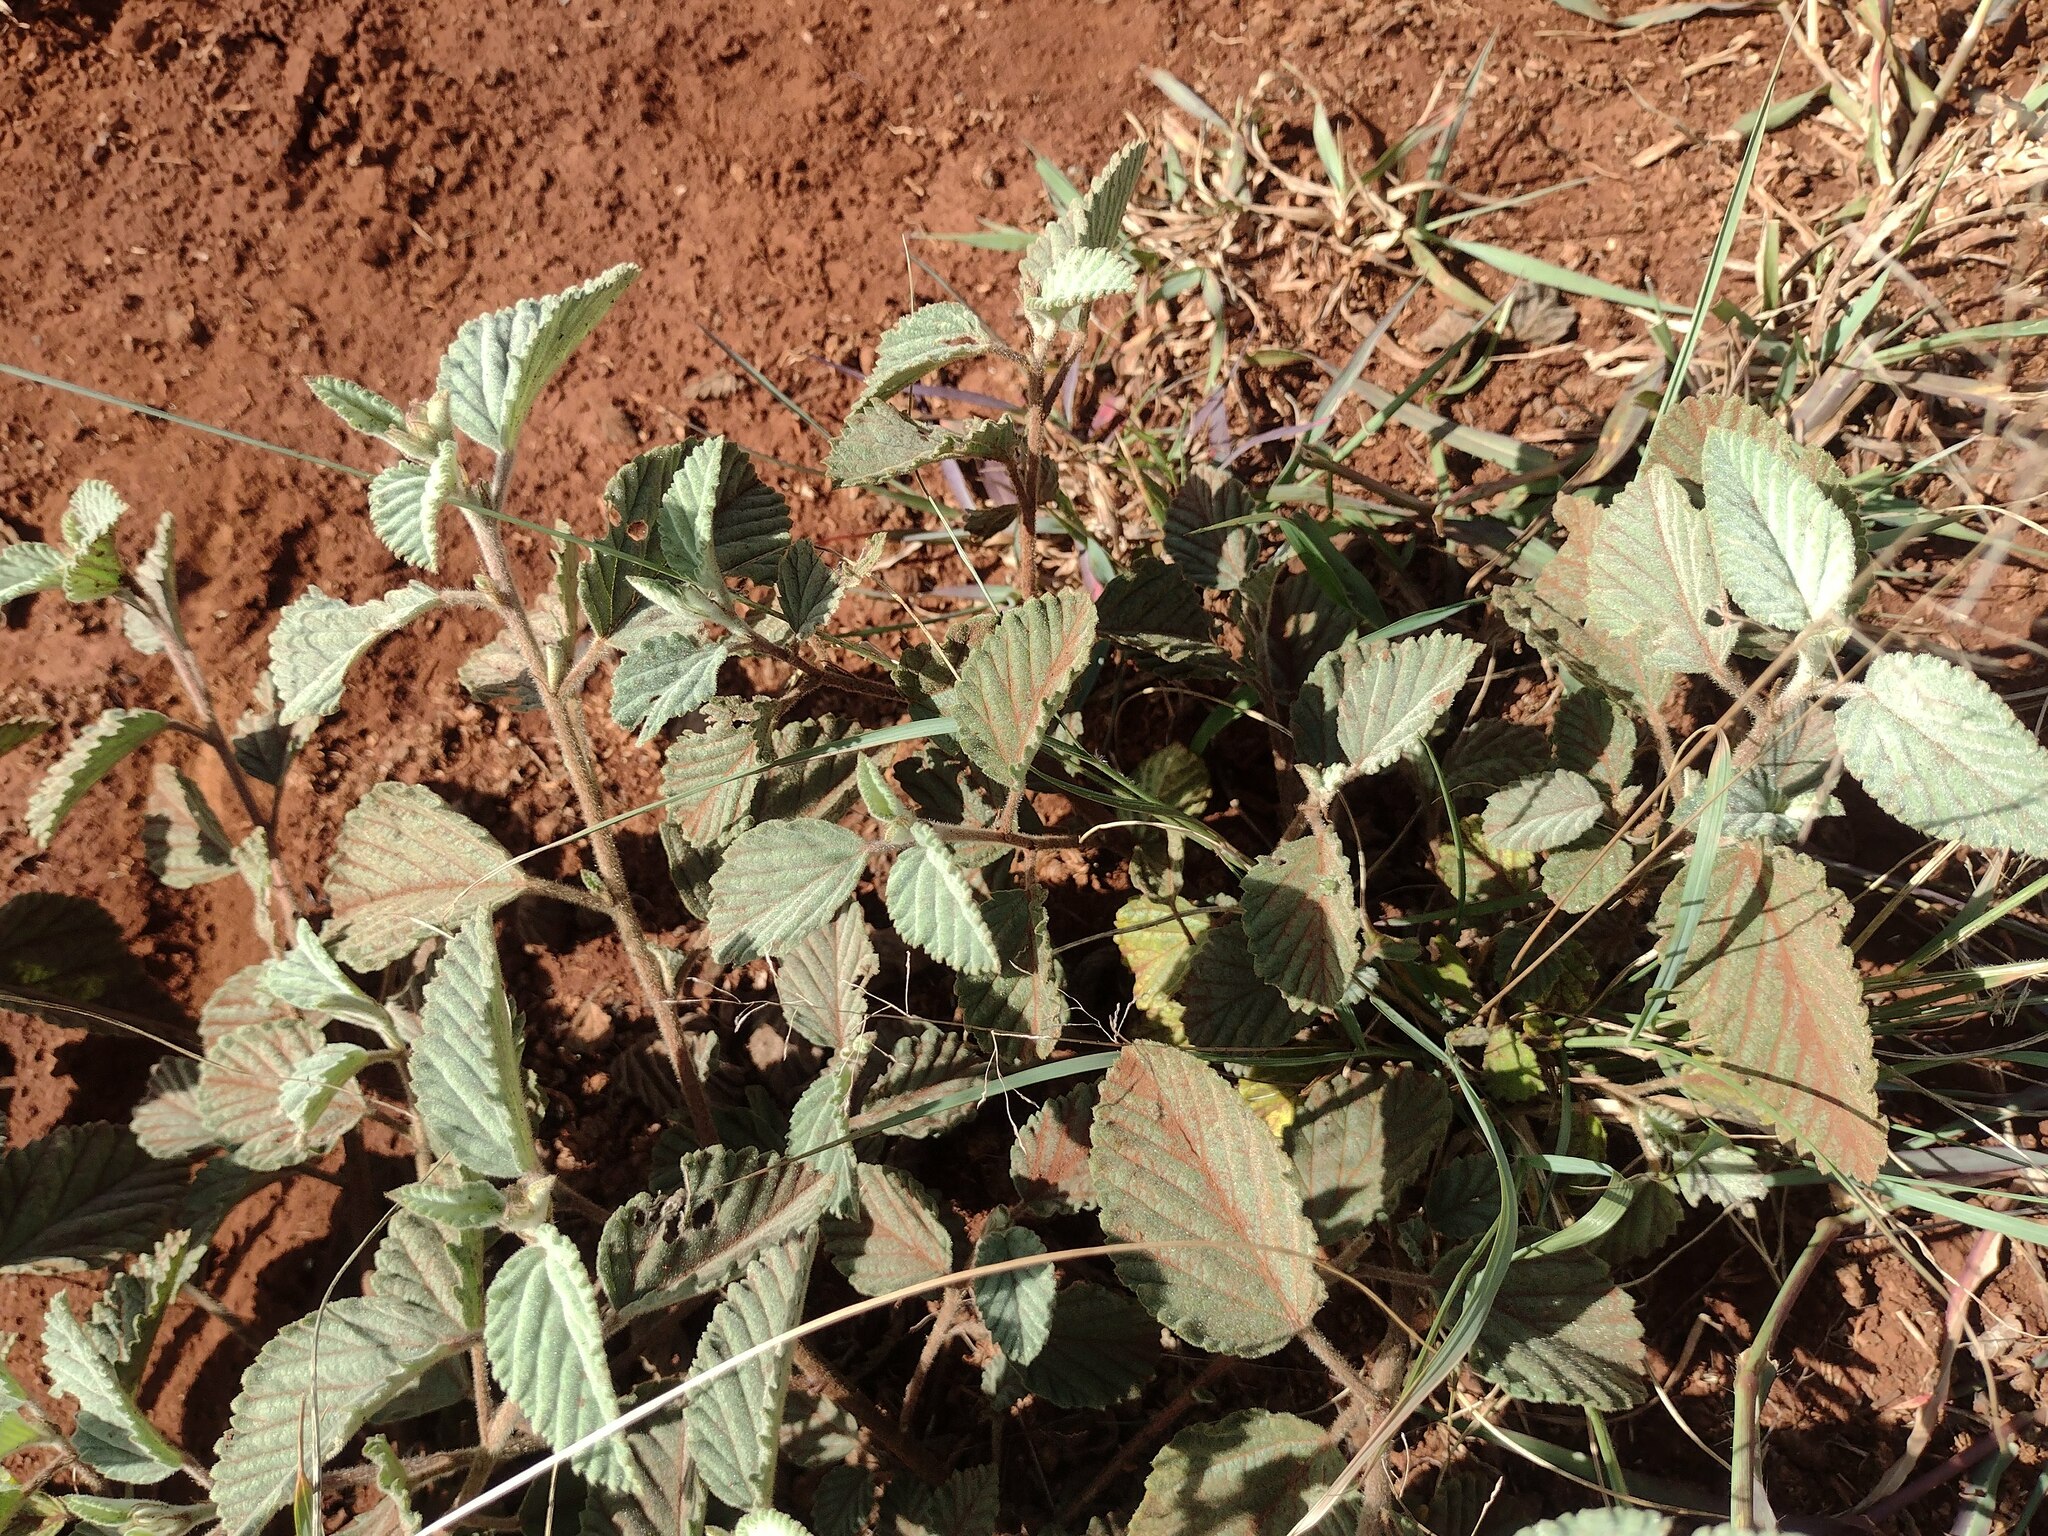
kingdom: Plantae
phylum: Tracheophyta
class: Magnoliopsida
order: Malvales
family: Malvaceae
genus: Waltheria
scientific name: Waltheria indica
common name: Leather-coat
